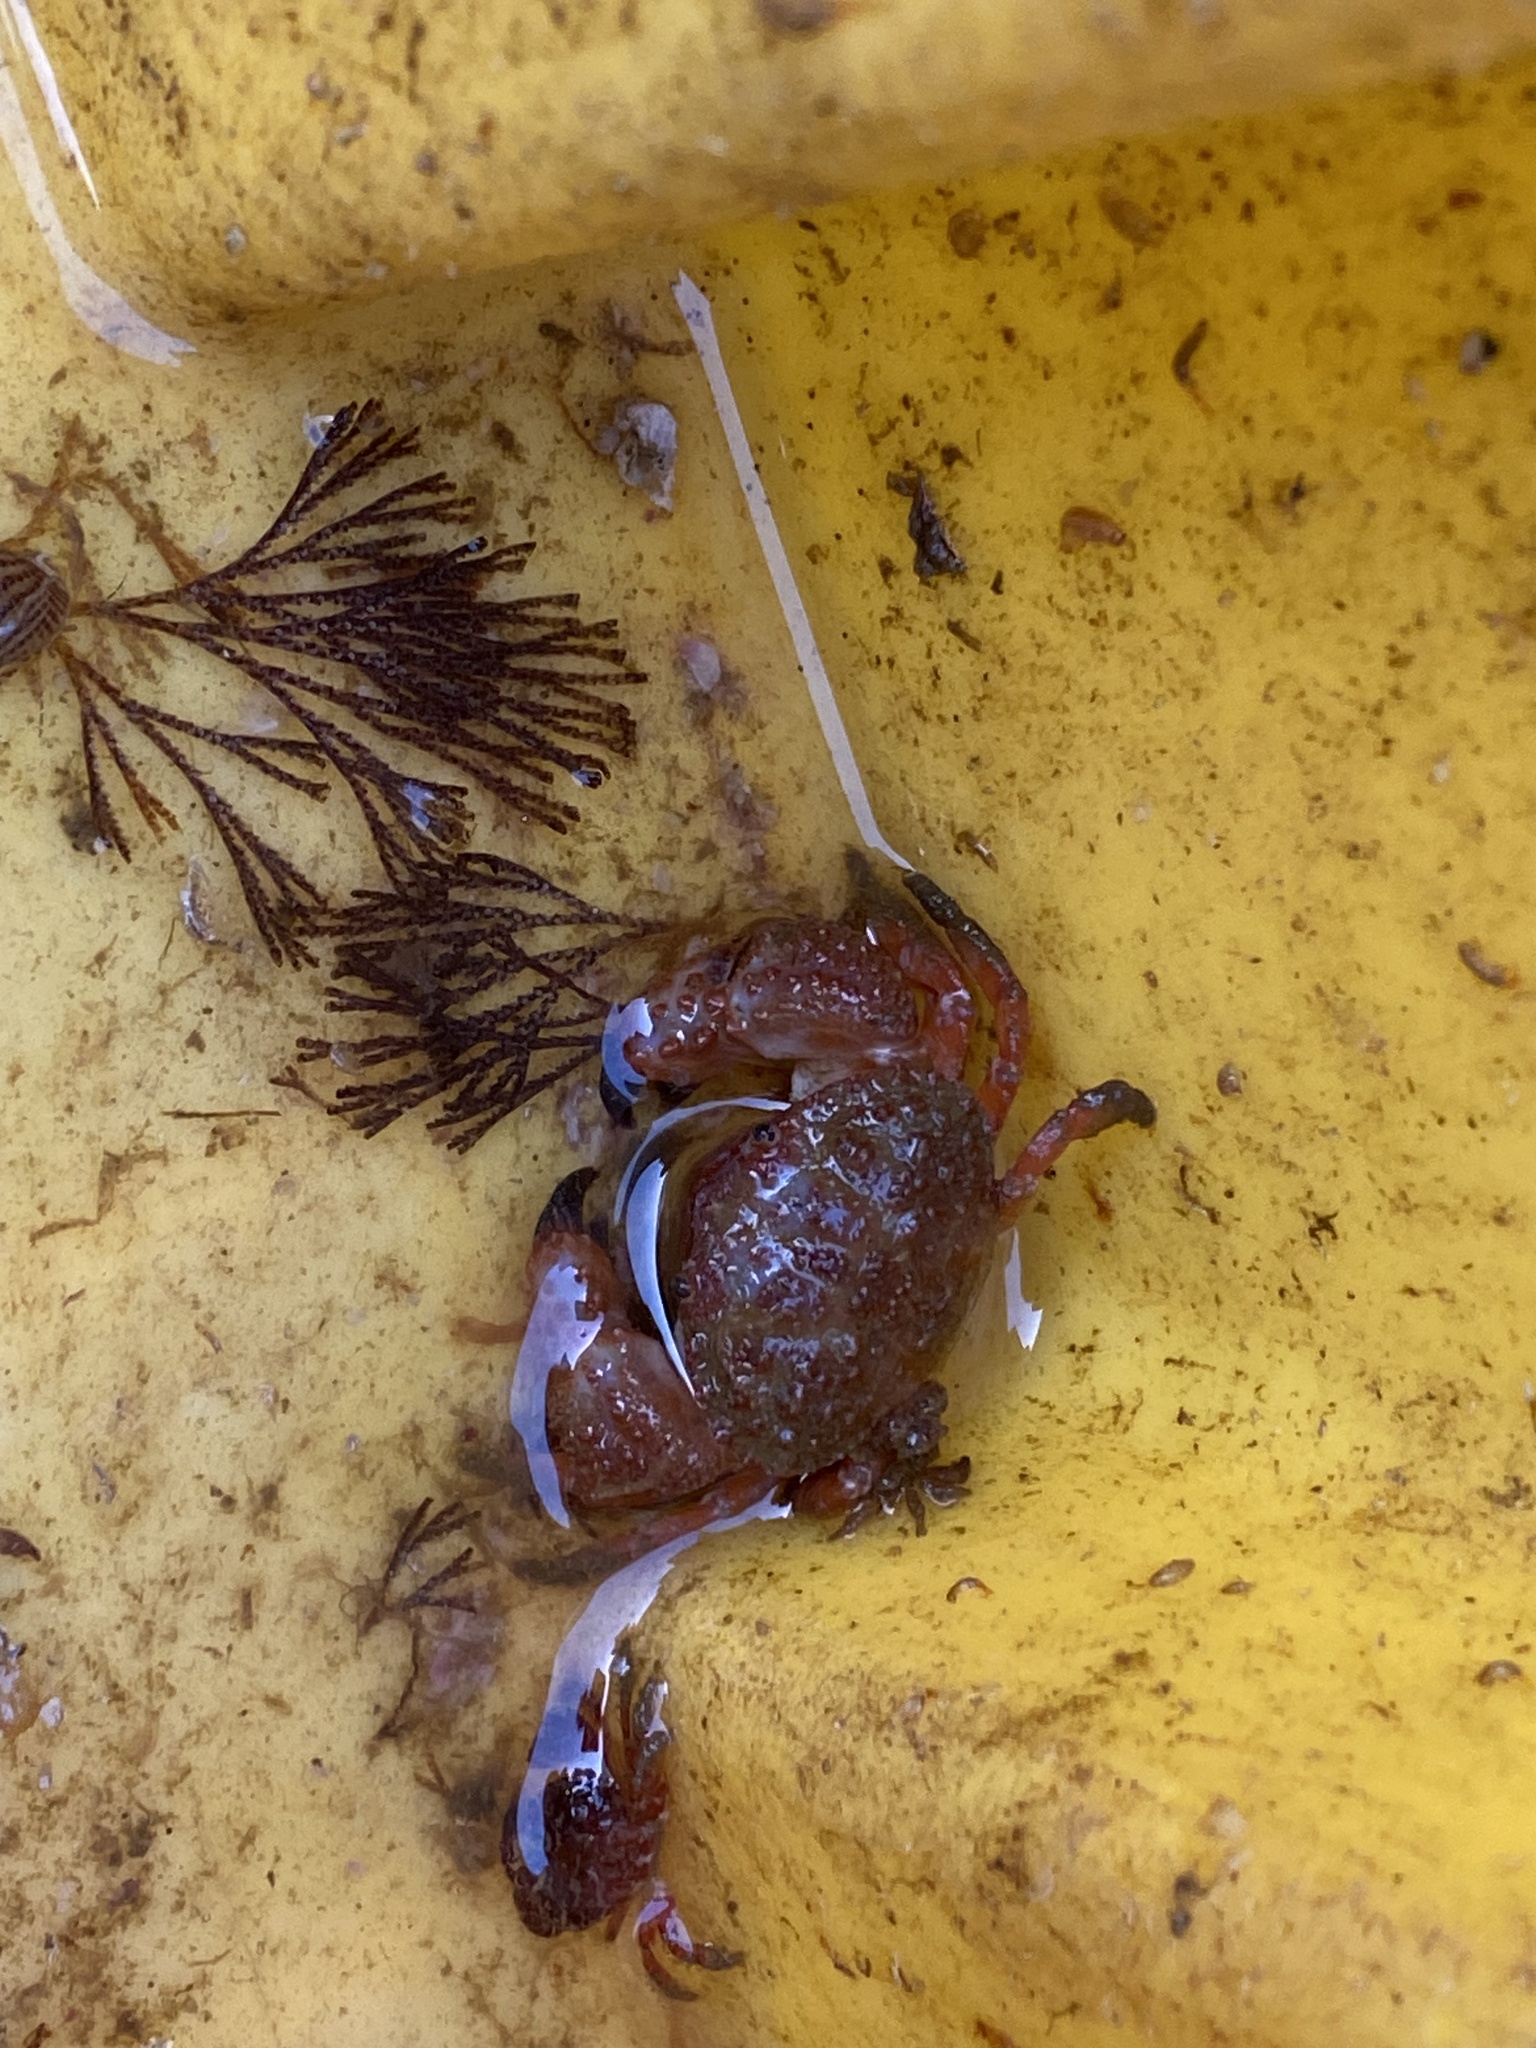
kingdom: Animalia
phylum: Arthropoda
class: Malacostraca
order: Decapoda
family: Pilumnoididae
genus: Pilumnoides
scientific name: Pilumnoides perlatus
